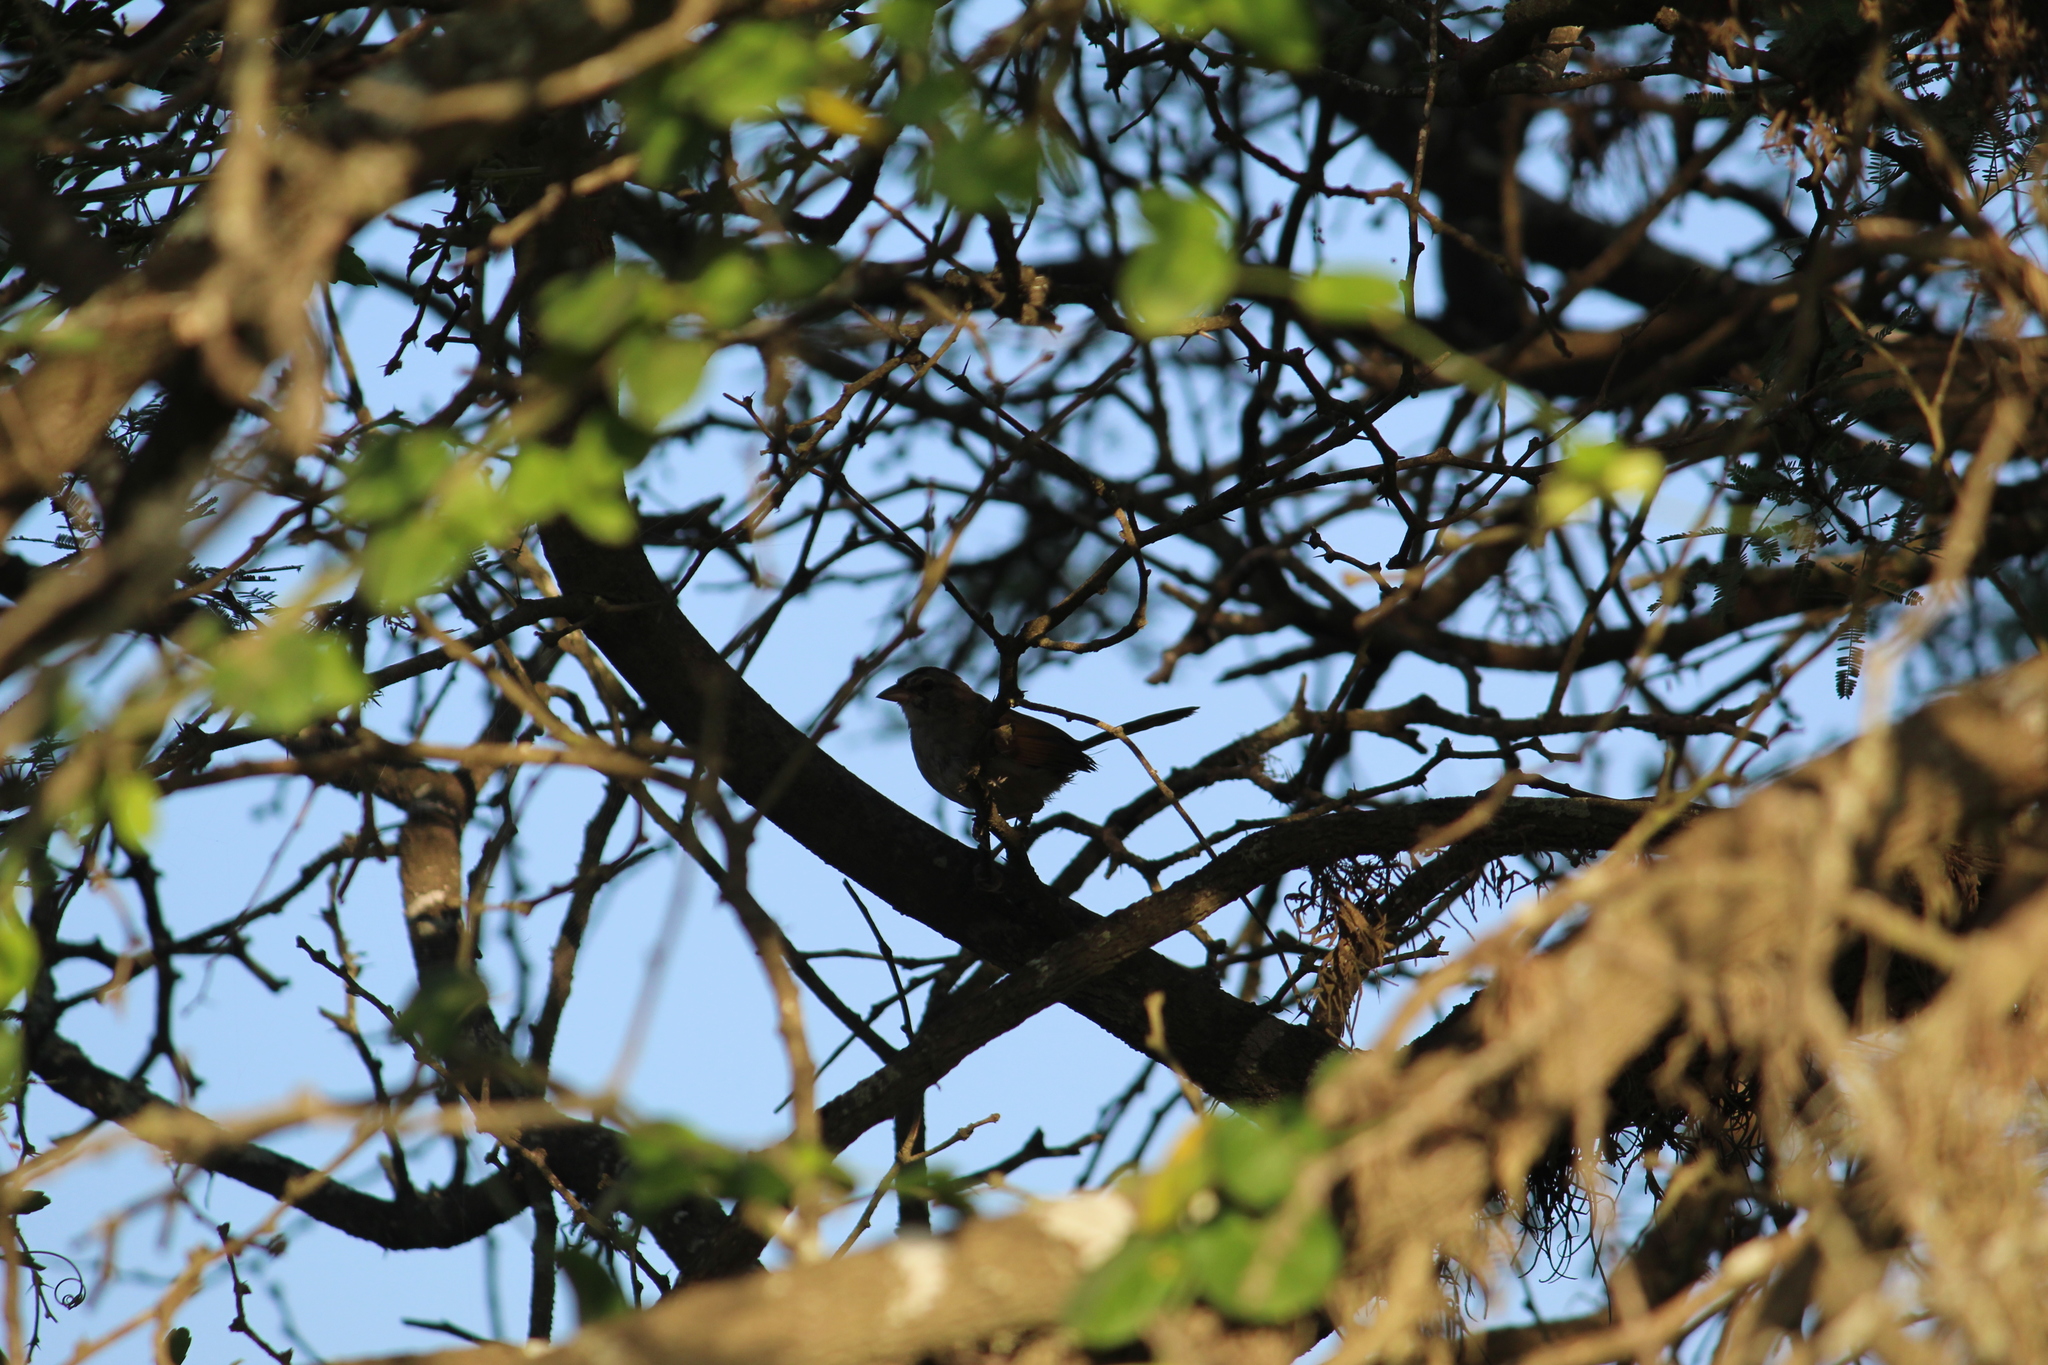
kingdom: Animalia
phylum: Chordata
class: Aves
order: Passeriformes
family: Passerellidae
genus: Arremonops
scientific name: Arremonops rufivirgatus
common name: Olive sparrow
